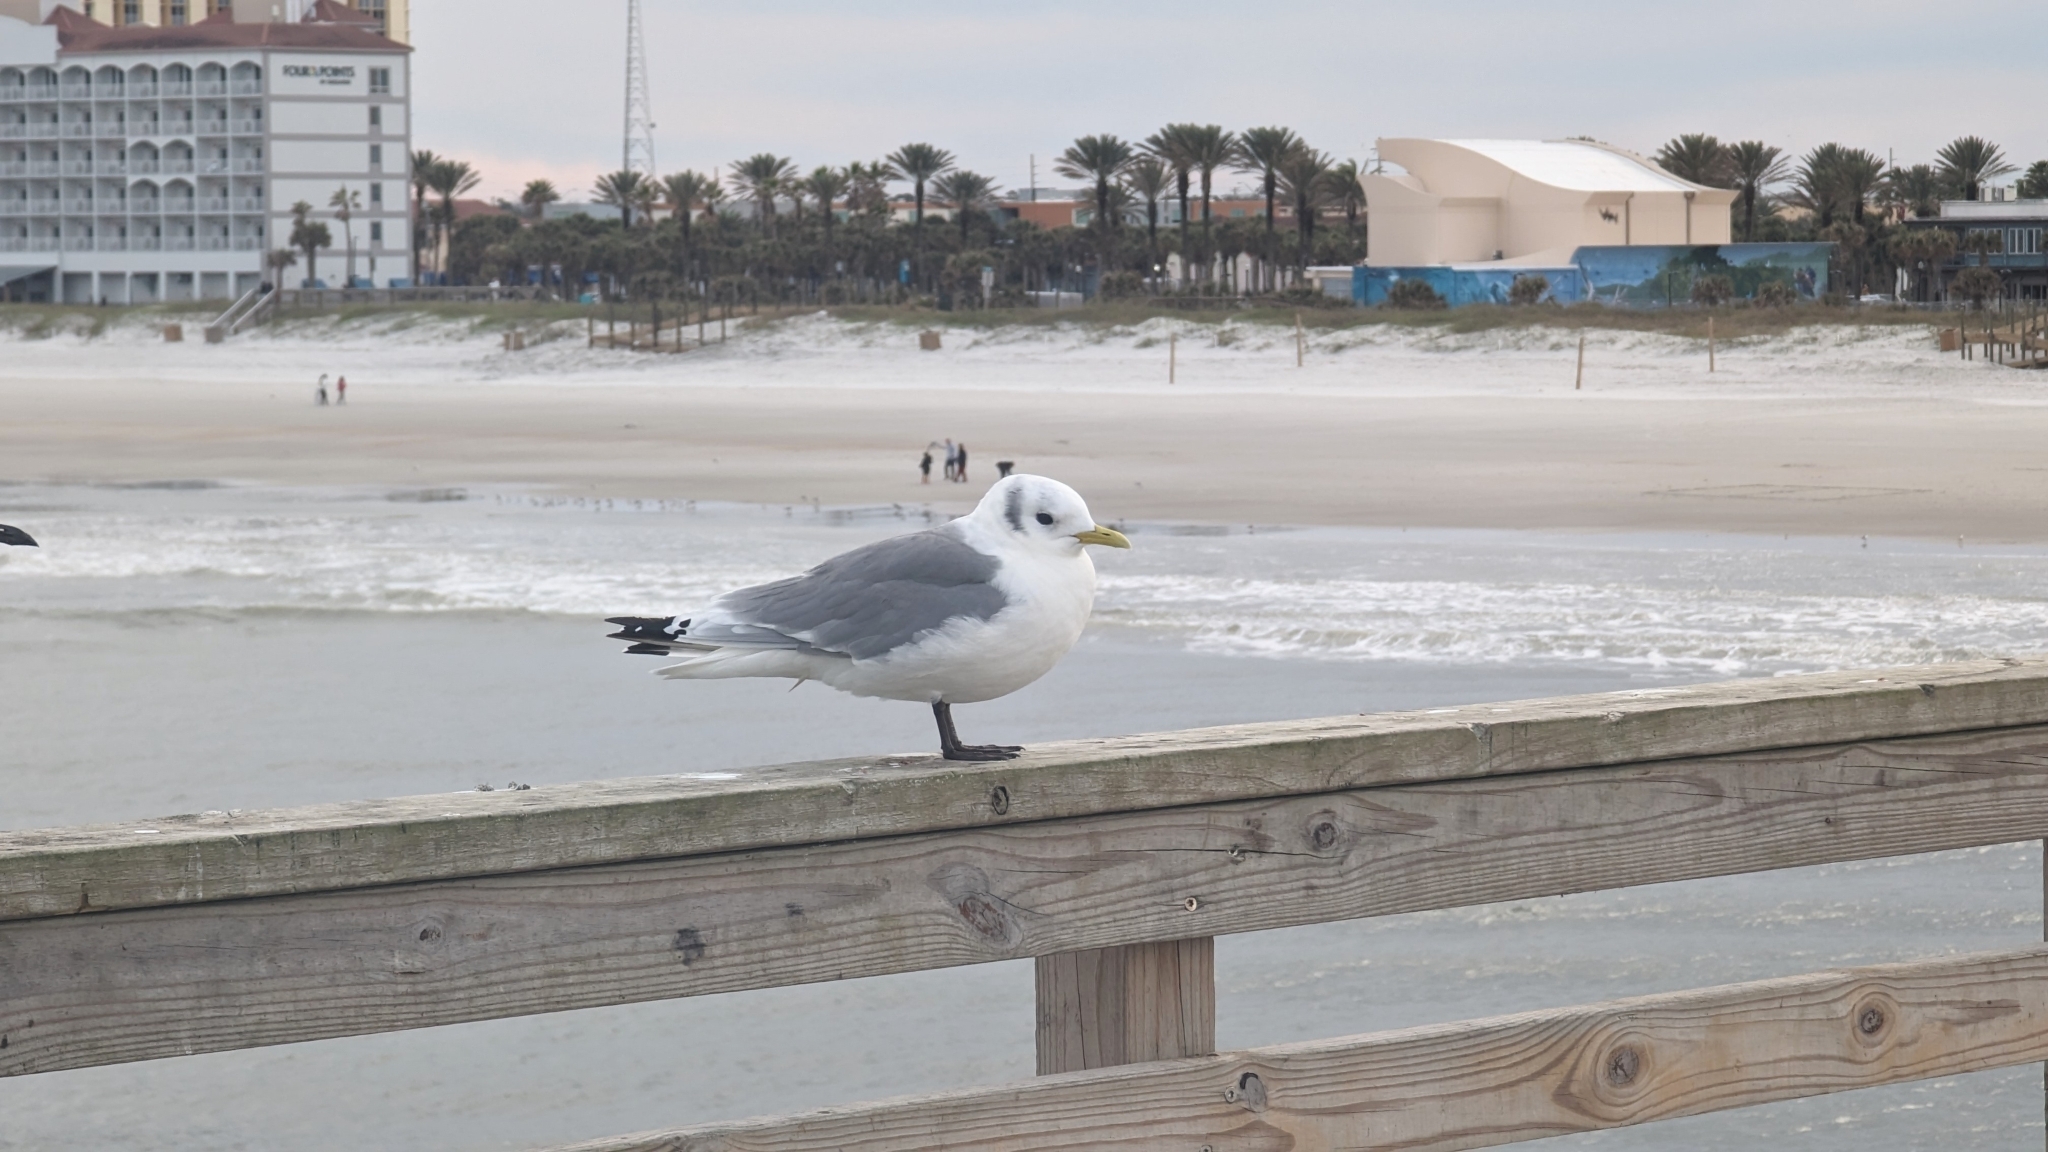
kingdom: Animalia
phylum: Chordata
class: Aves
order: Charadriiformes
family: Laridae
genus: Rissa
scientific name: Rissa tridactyla
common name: Black-legged kittiwake
